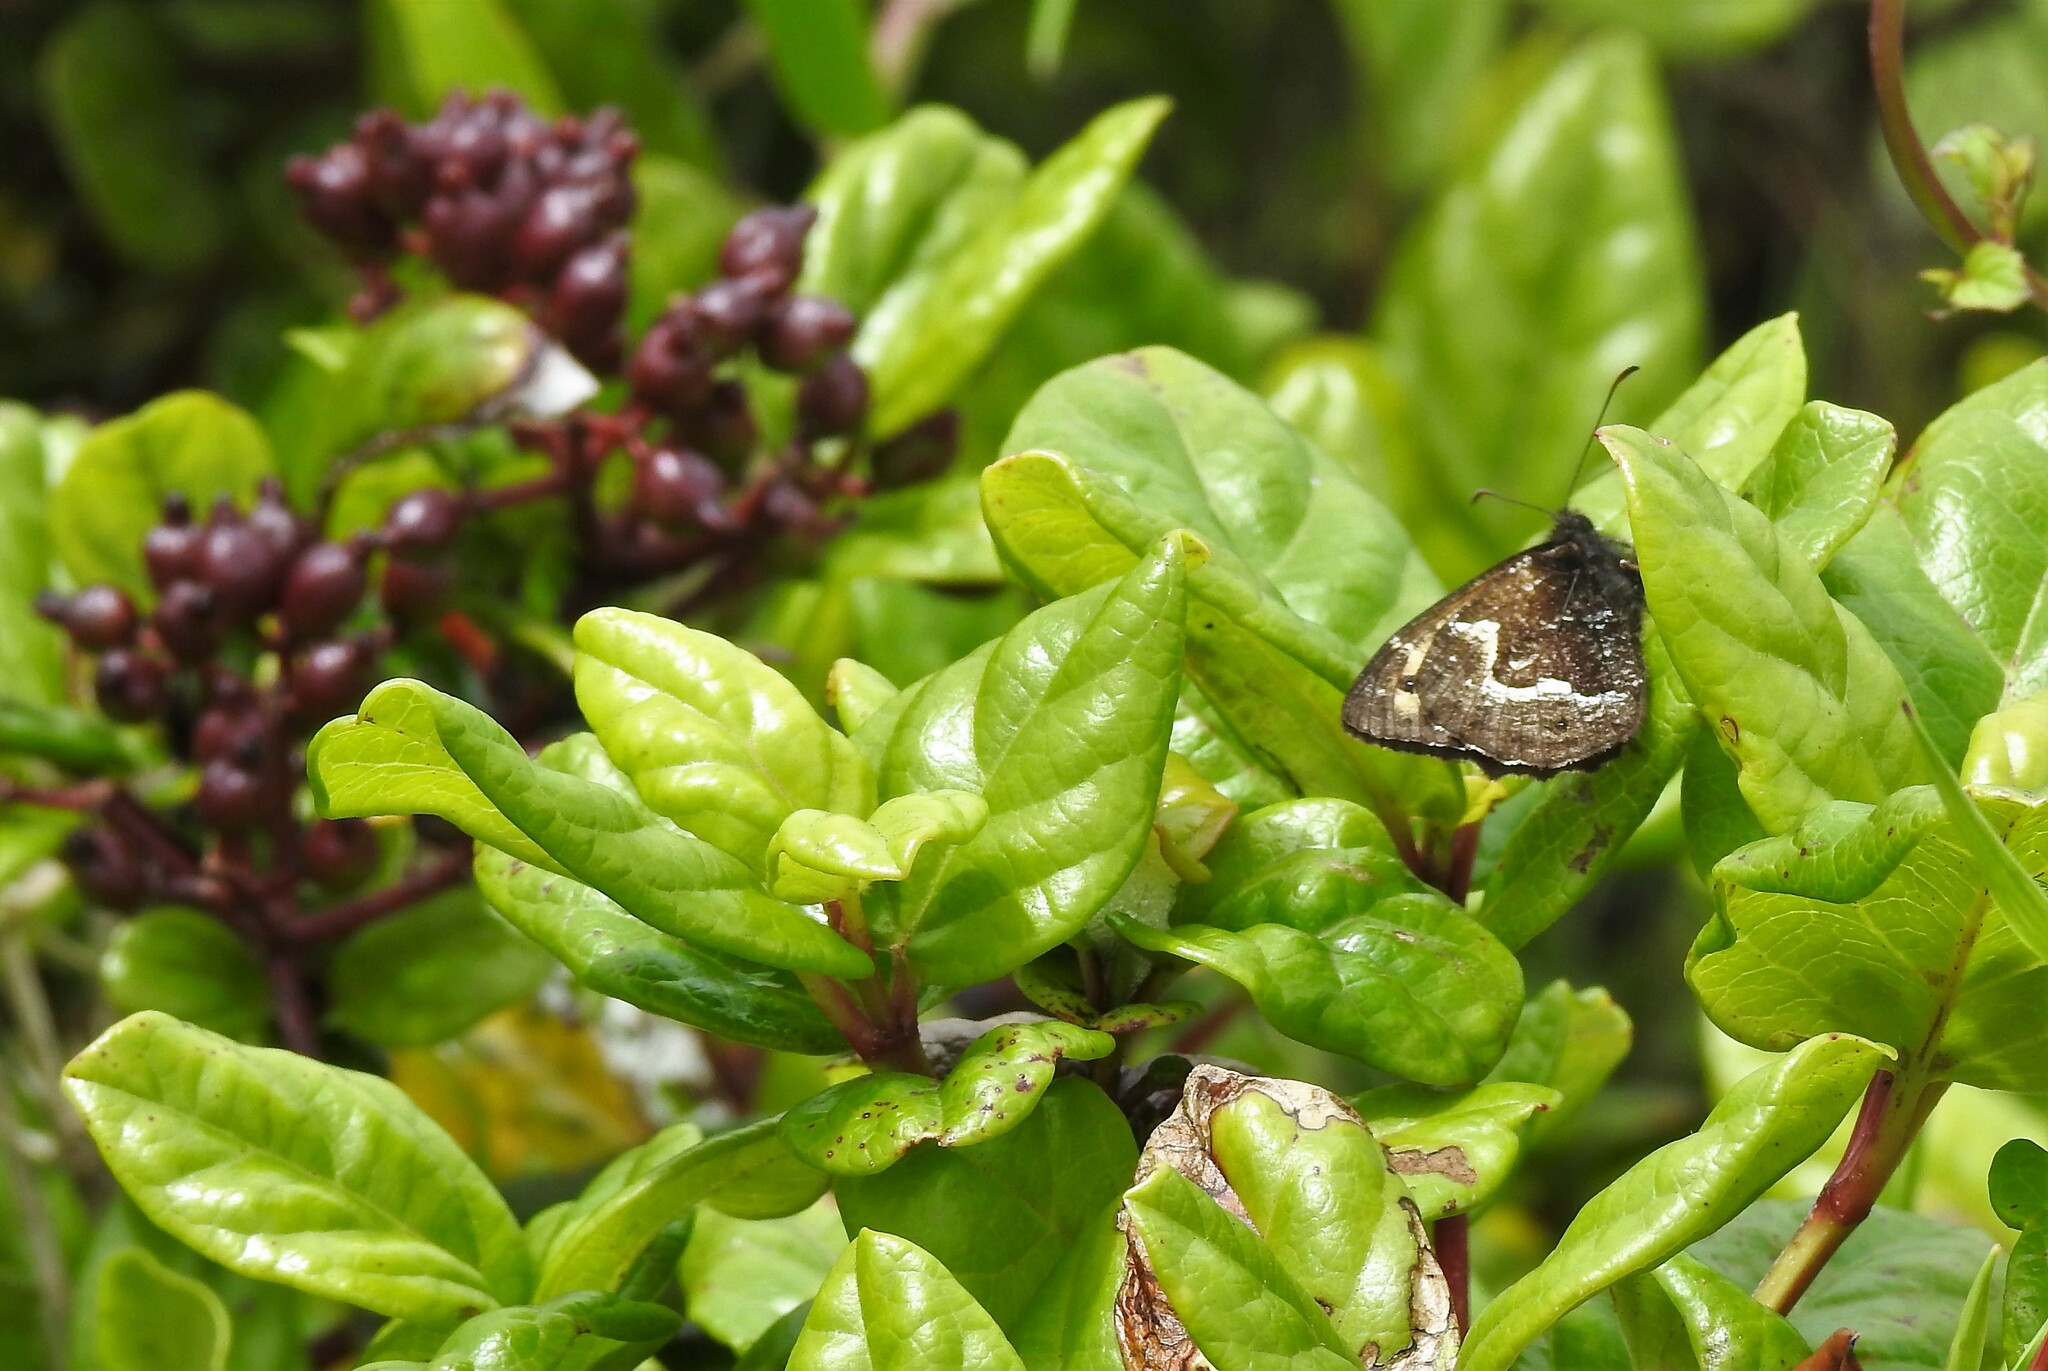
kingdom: Animalia
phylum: Arthropoda
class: Insecta
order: Lepidoptera
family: Nymphalidae
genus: Hipparchia
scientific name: Hipparchia azorinus
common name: Azores grayling
